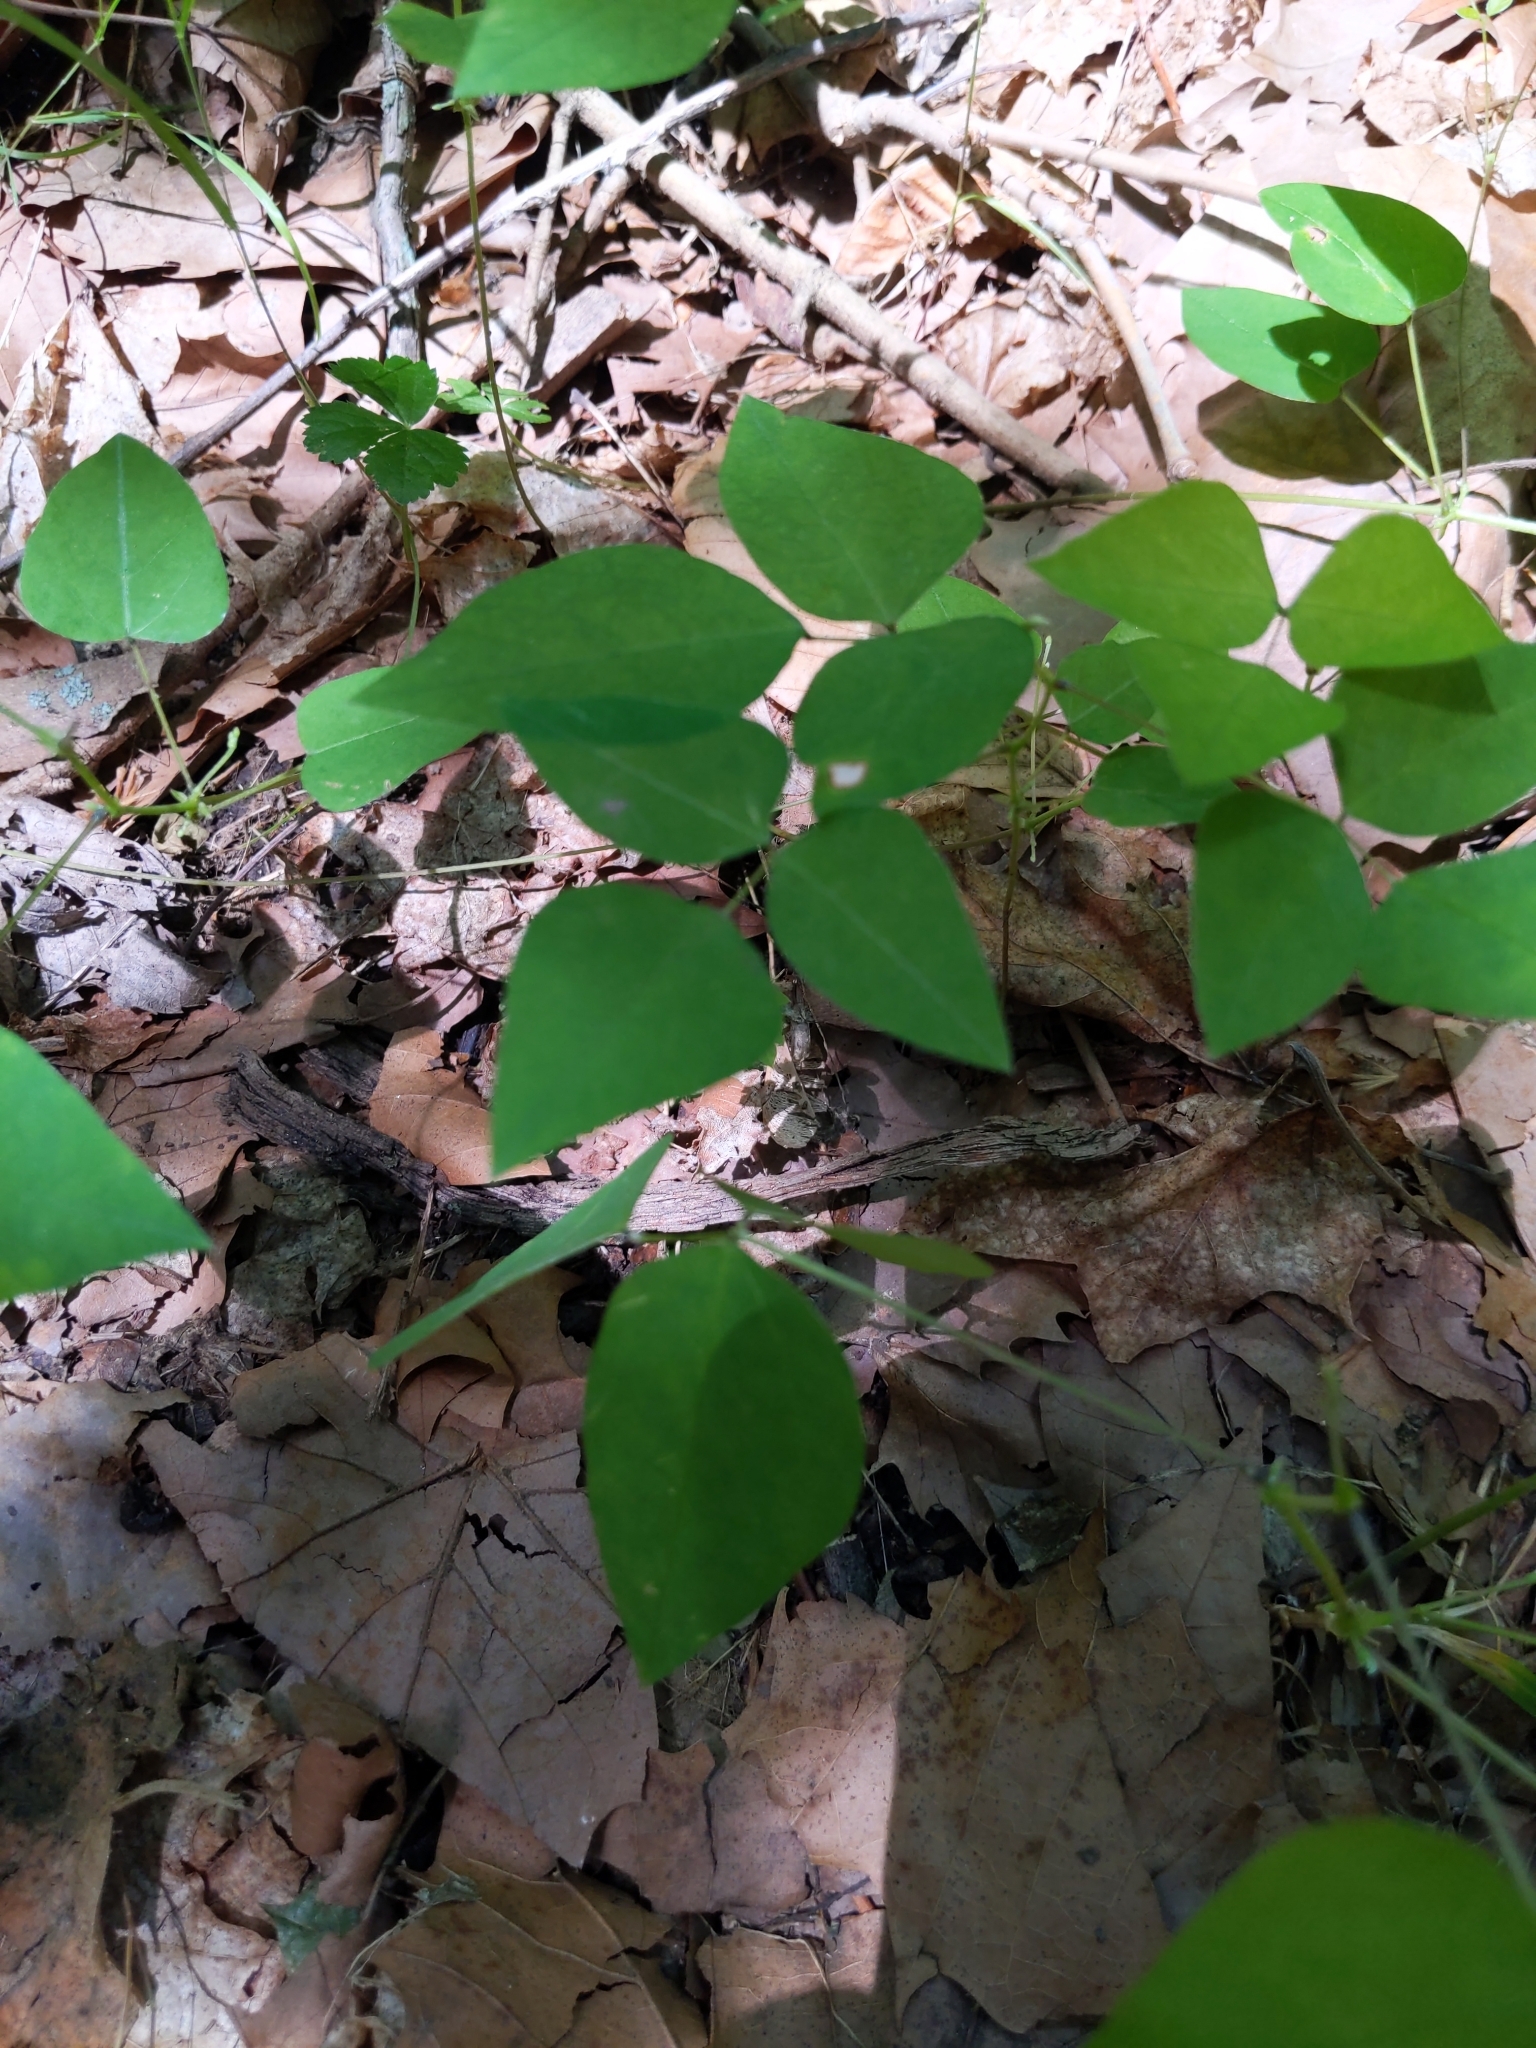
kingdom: Plantae
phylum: Tracheophyta
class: Magnoliopsida
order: Fabales
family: Fabaceae
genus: Amphicarpaea
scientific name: Amphicarpaea bracteata
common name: American hog peanut
